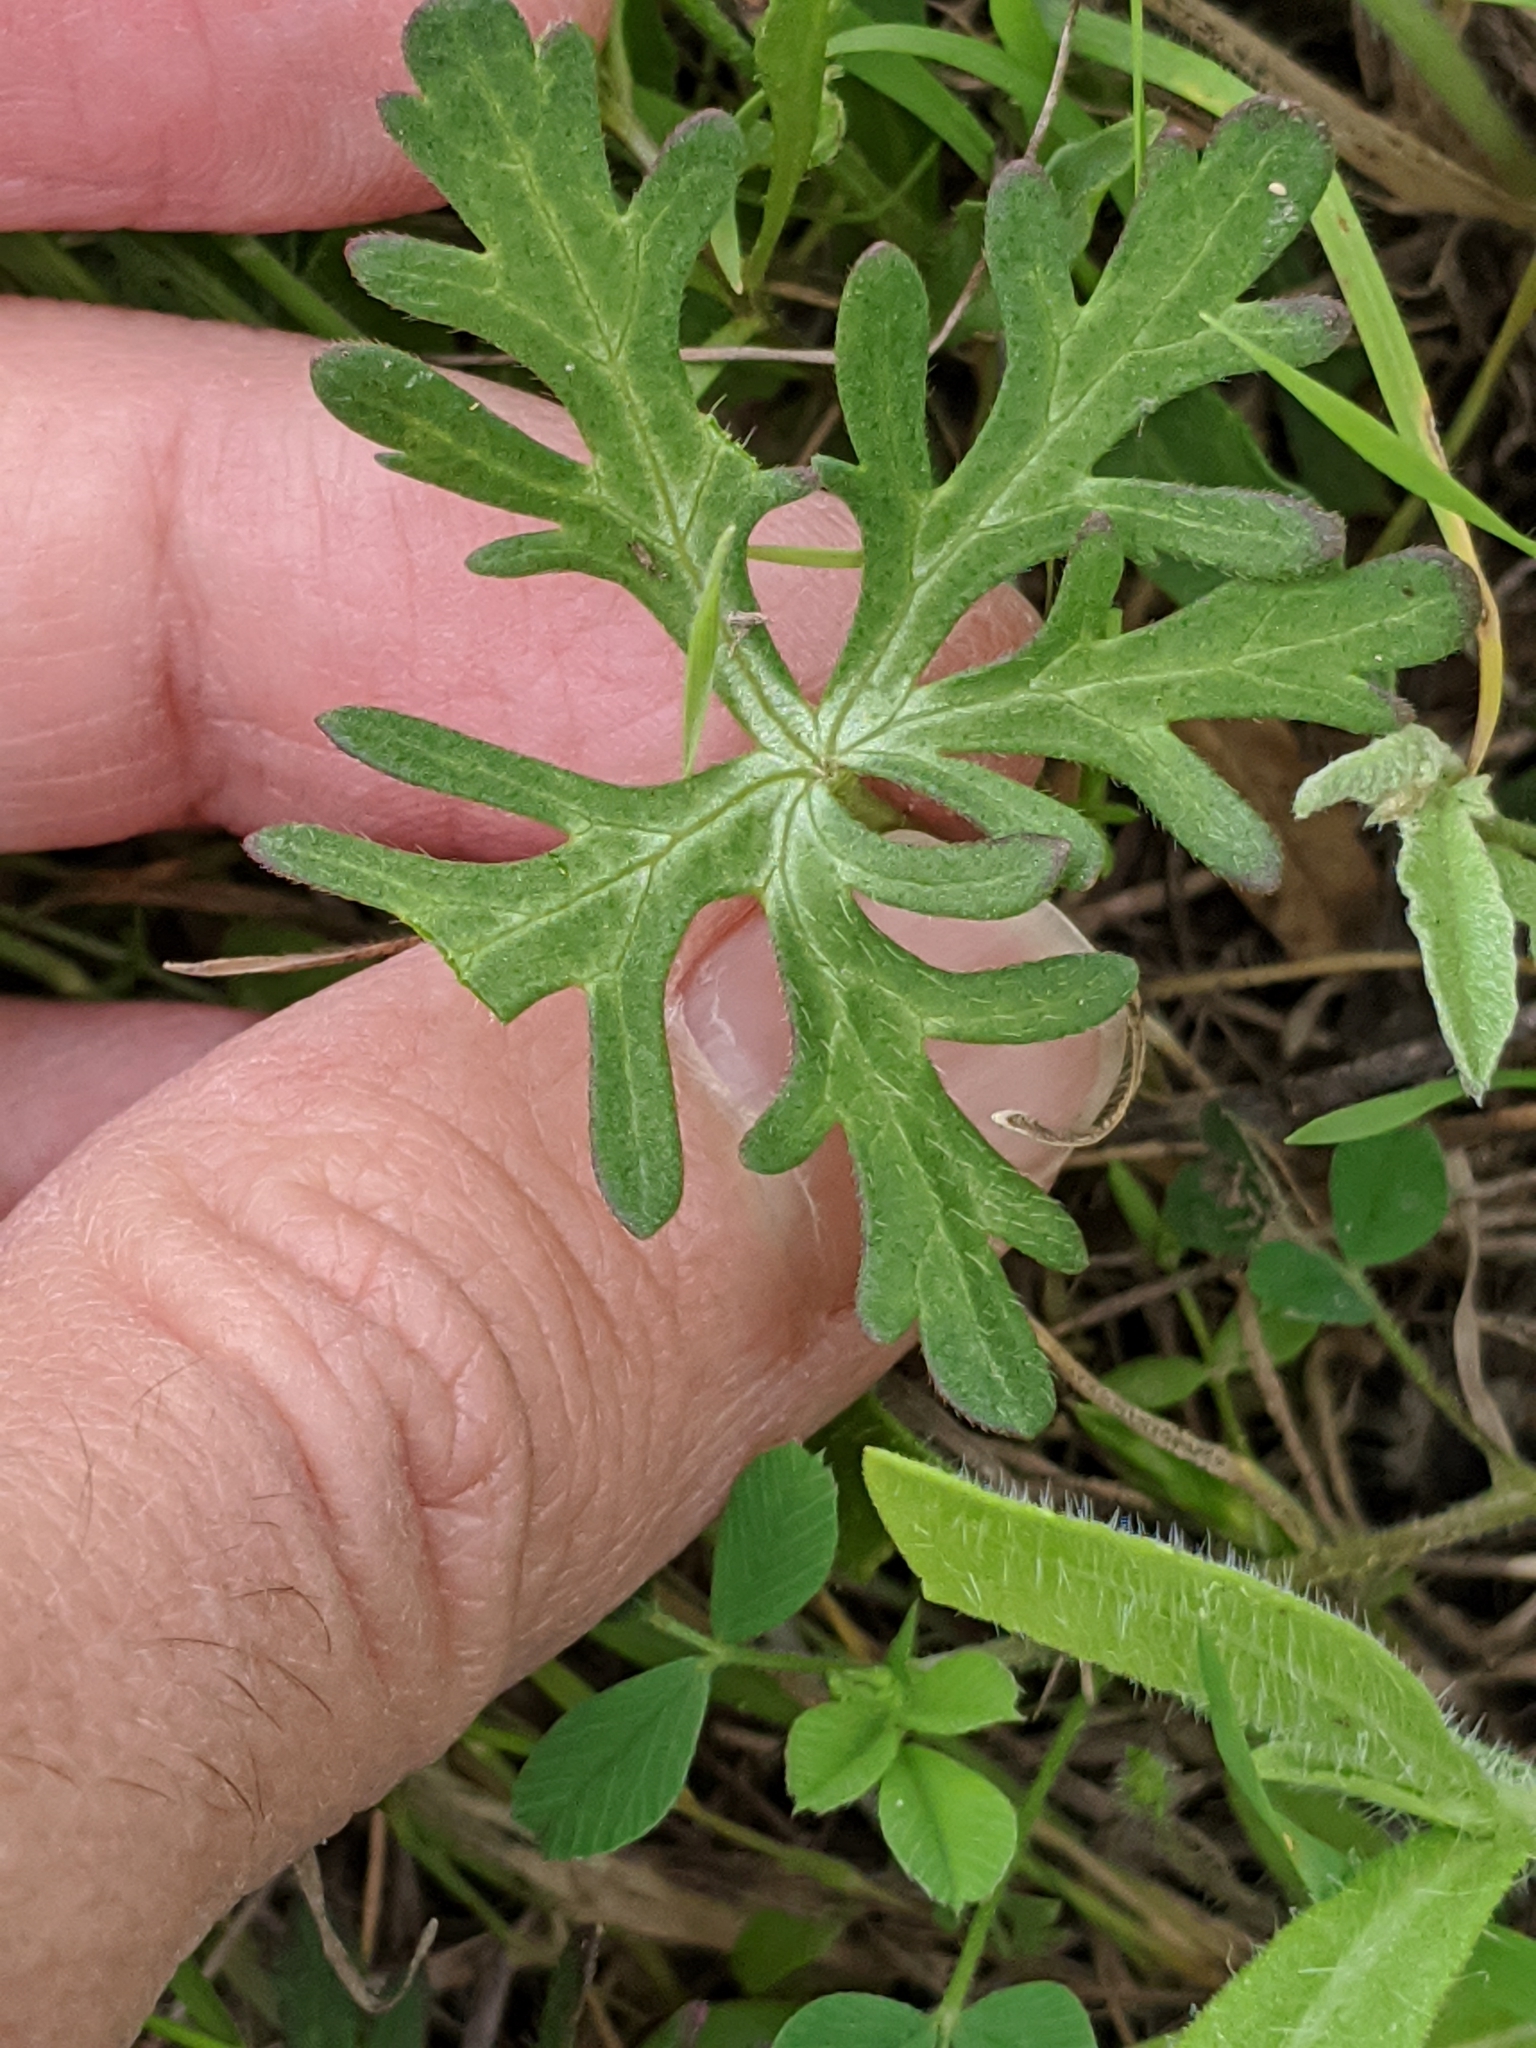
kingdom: Plantae
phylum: Tracheophyta
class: Magnoliopsida
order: Malvales
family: Malvaceae
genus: Callirhoe
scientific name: Callirhoe involucrata
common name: Purple poppy-mallow
